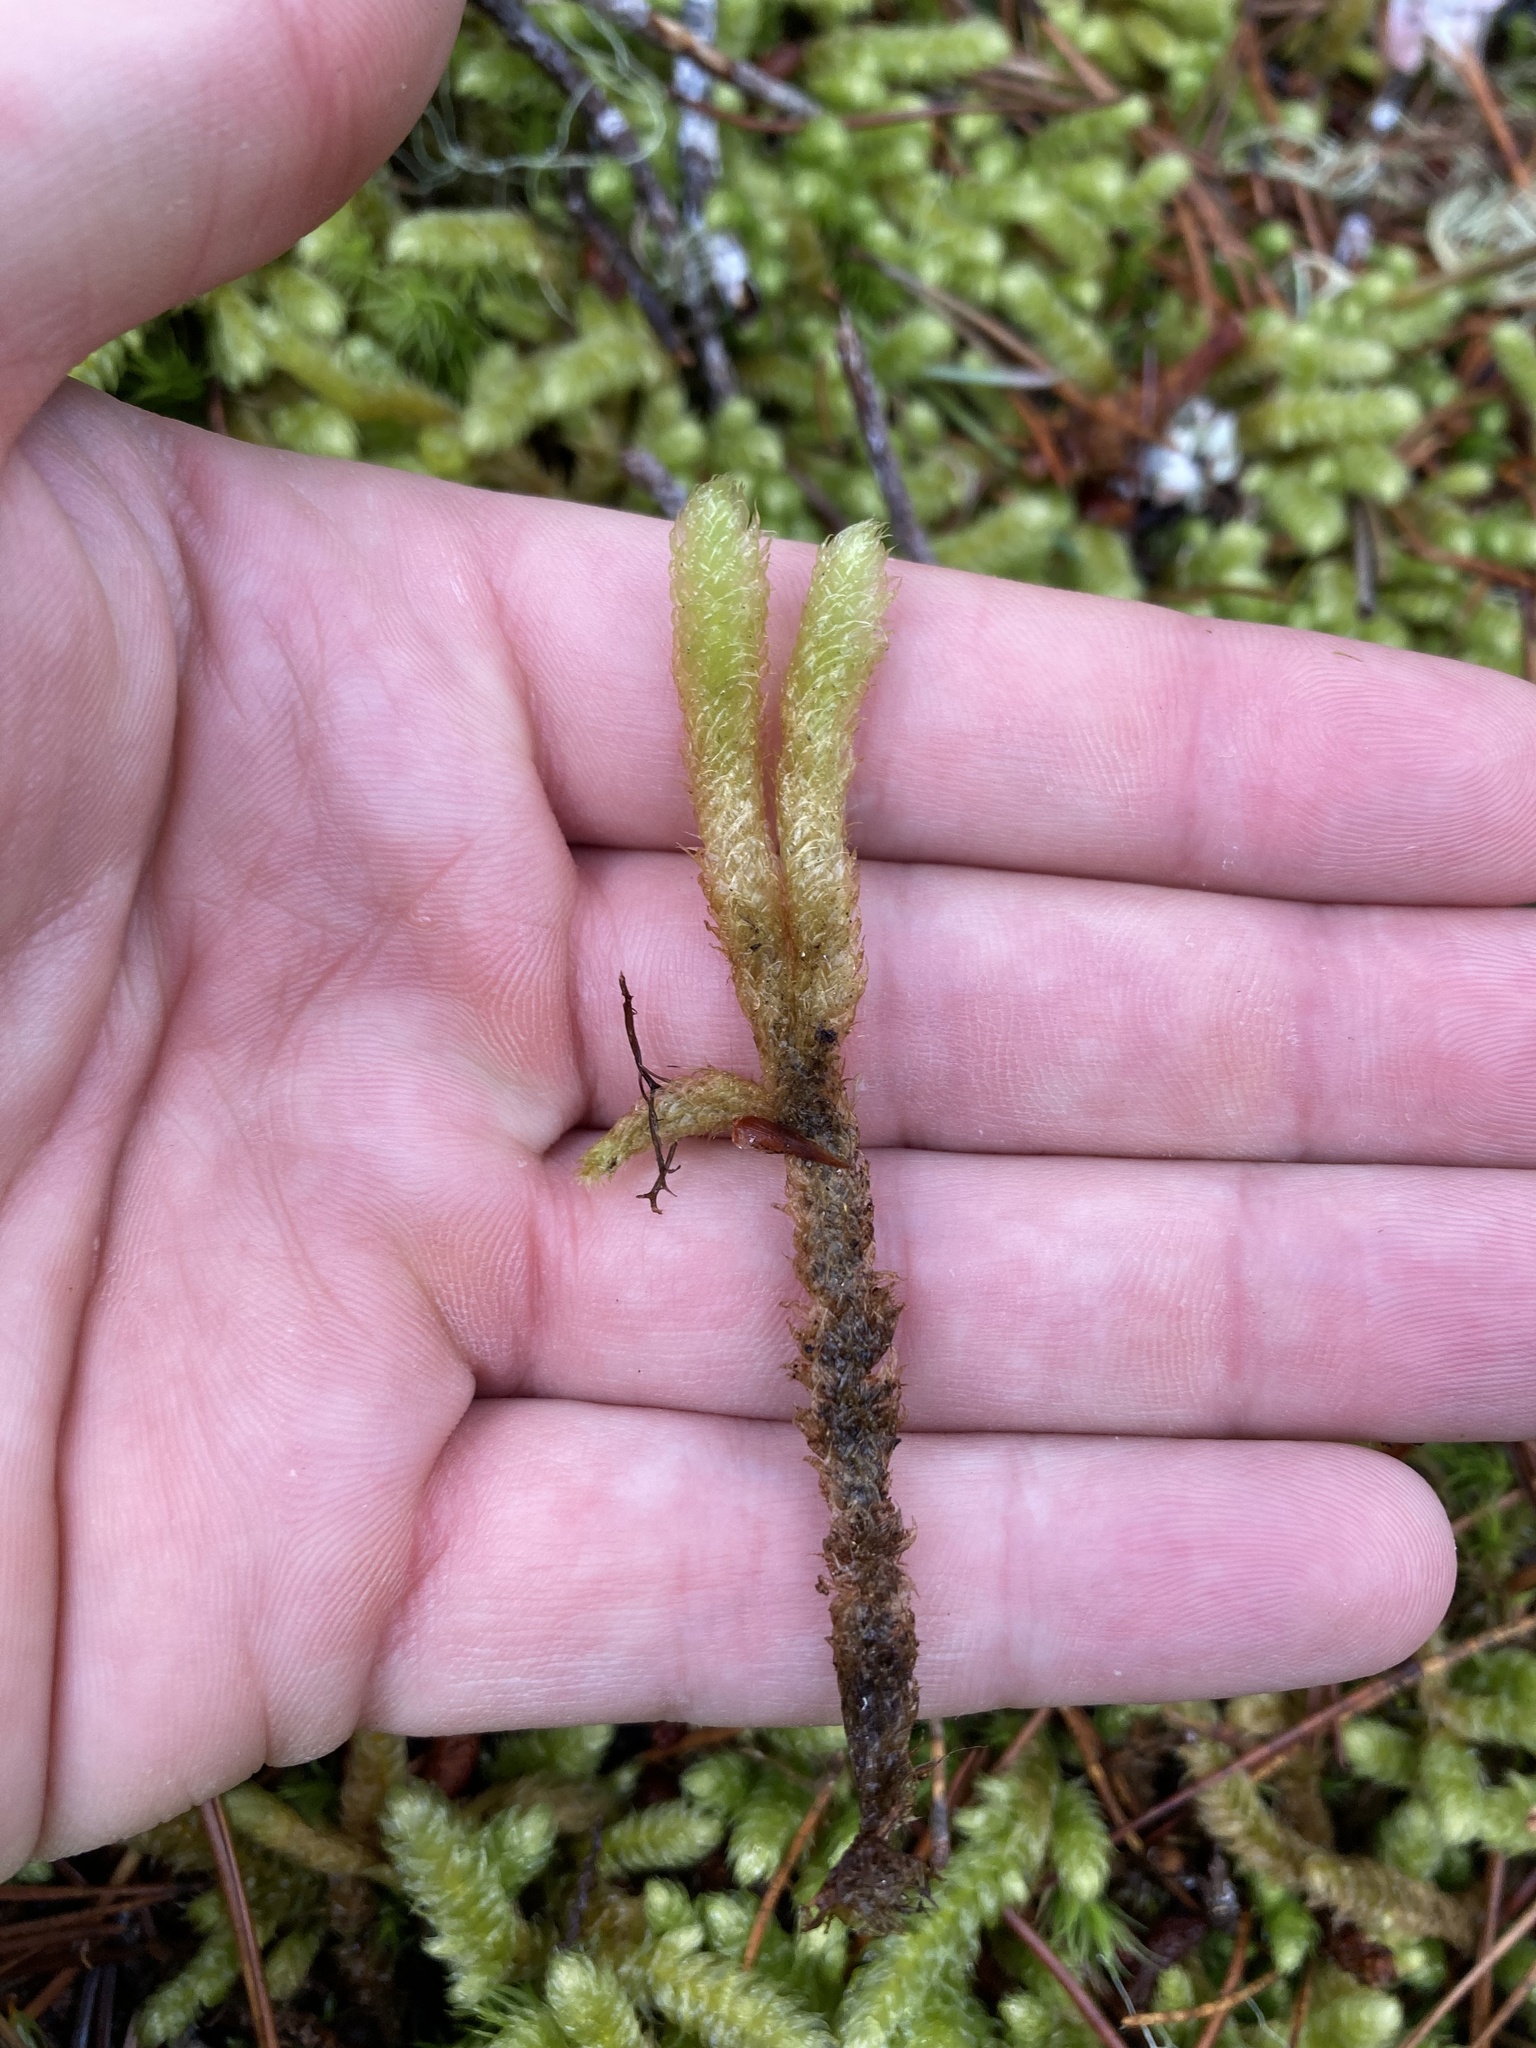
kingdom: Plantae
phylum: Bryophyta
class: Bryopsida
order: Hypnales
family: Hylocomiaceae
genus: Rhytidiopsis
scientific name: Rhytidiopsis robusta
